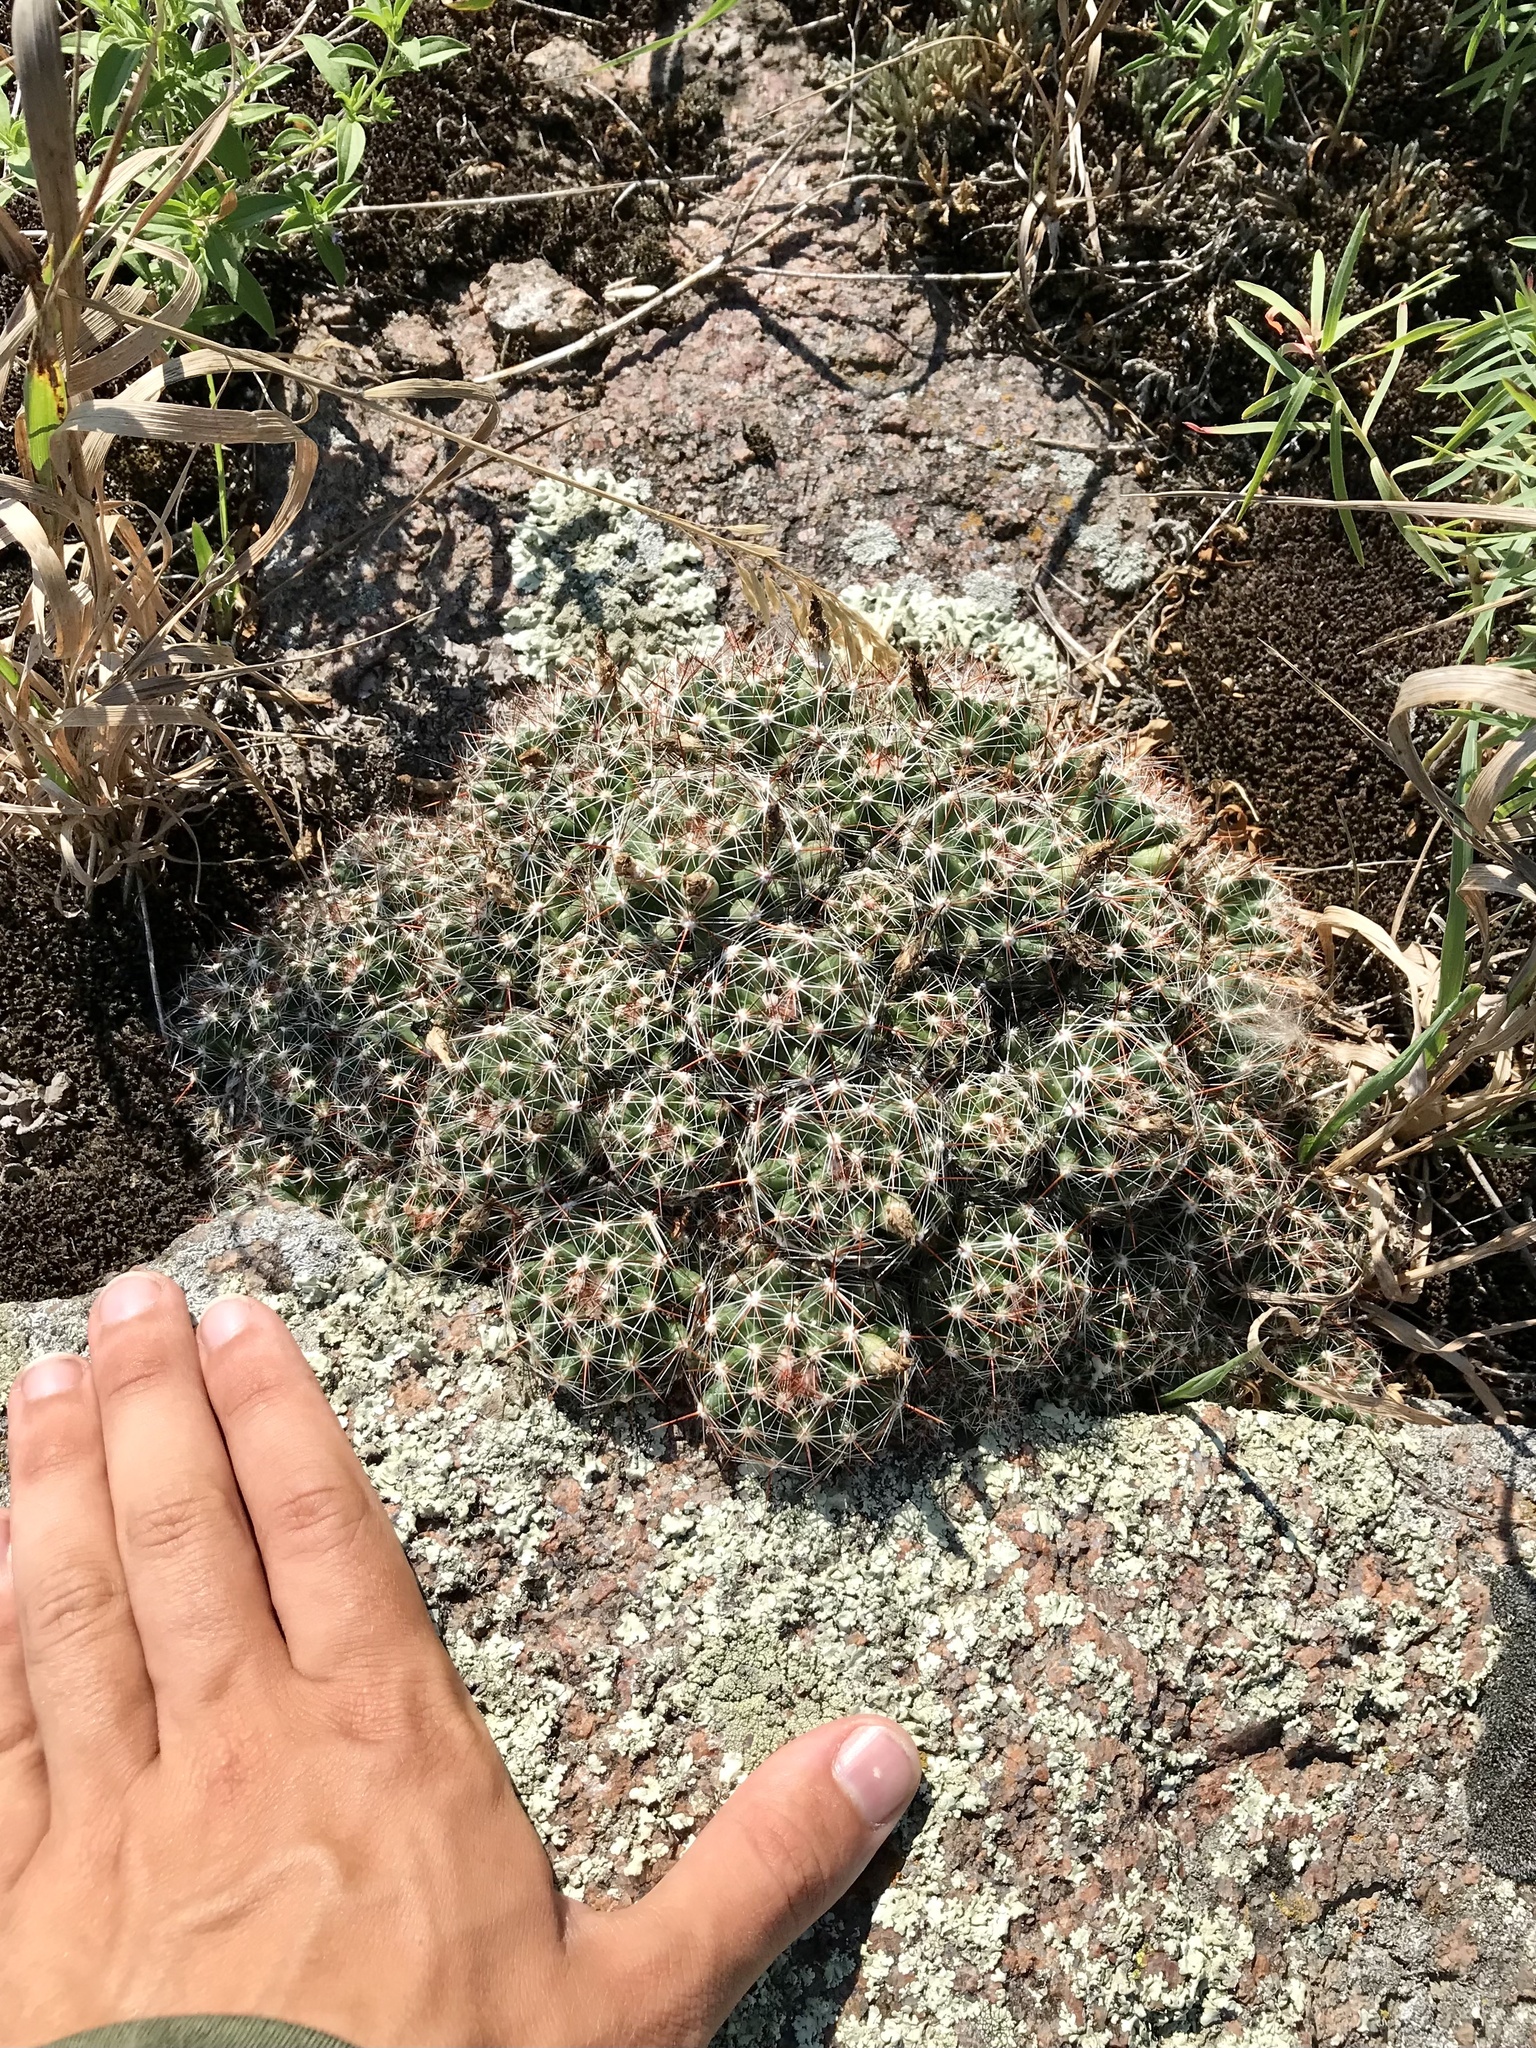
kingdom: Plantae
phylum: Tracheophyta
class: Magnoliopsida
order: Caryophyllales
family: Cactaceae
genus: Pelecyphora
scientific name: Pelecyphora vivipara
